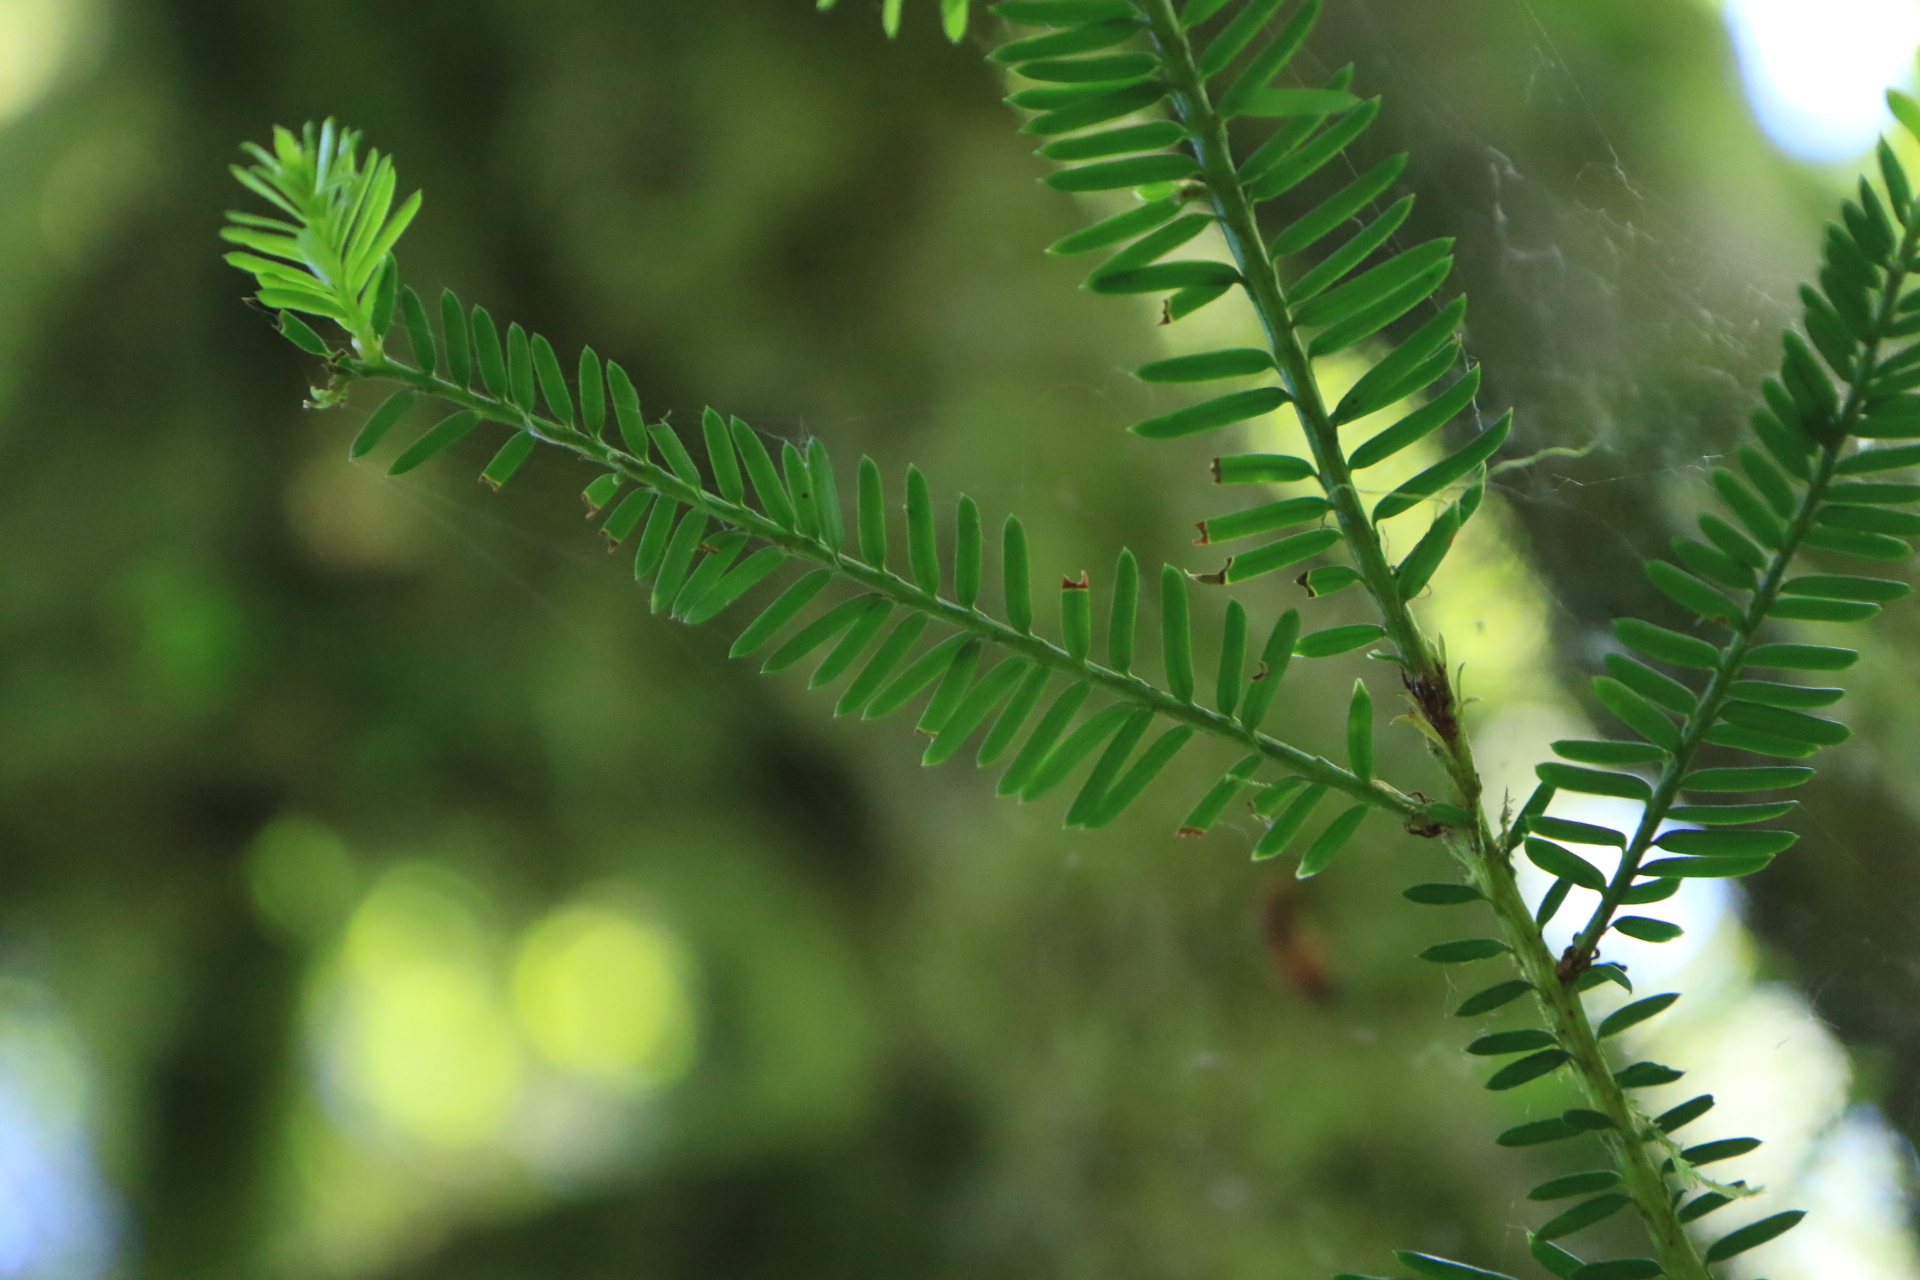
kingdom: Plantae
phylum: Tracheophyta
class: Pinopsida
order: Pinales
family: Taxaceae
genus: Taxus
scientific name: Taxus brevifolia
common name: Pacific yew
